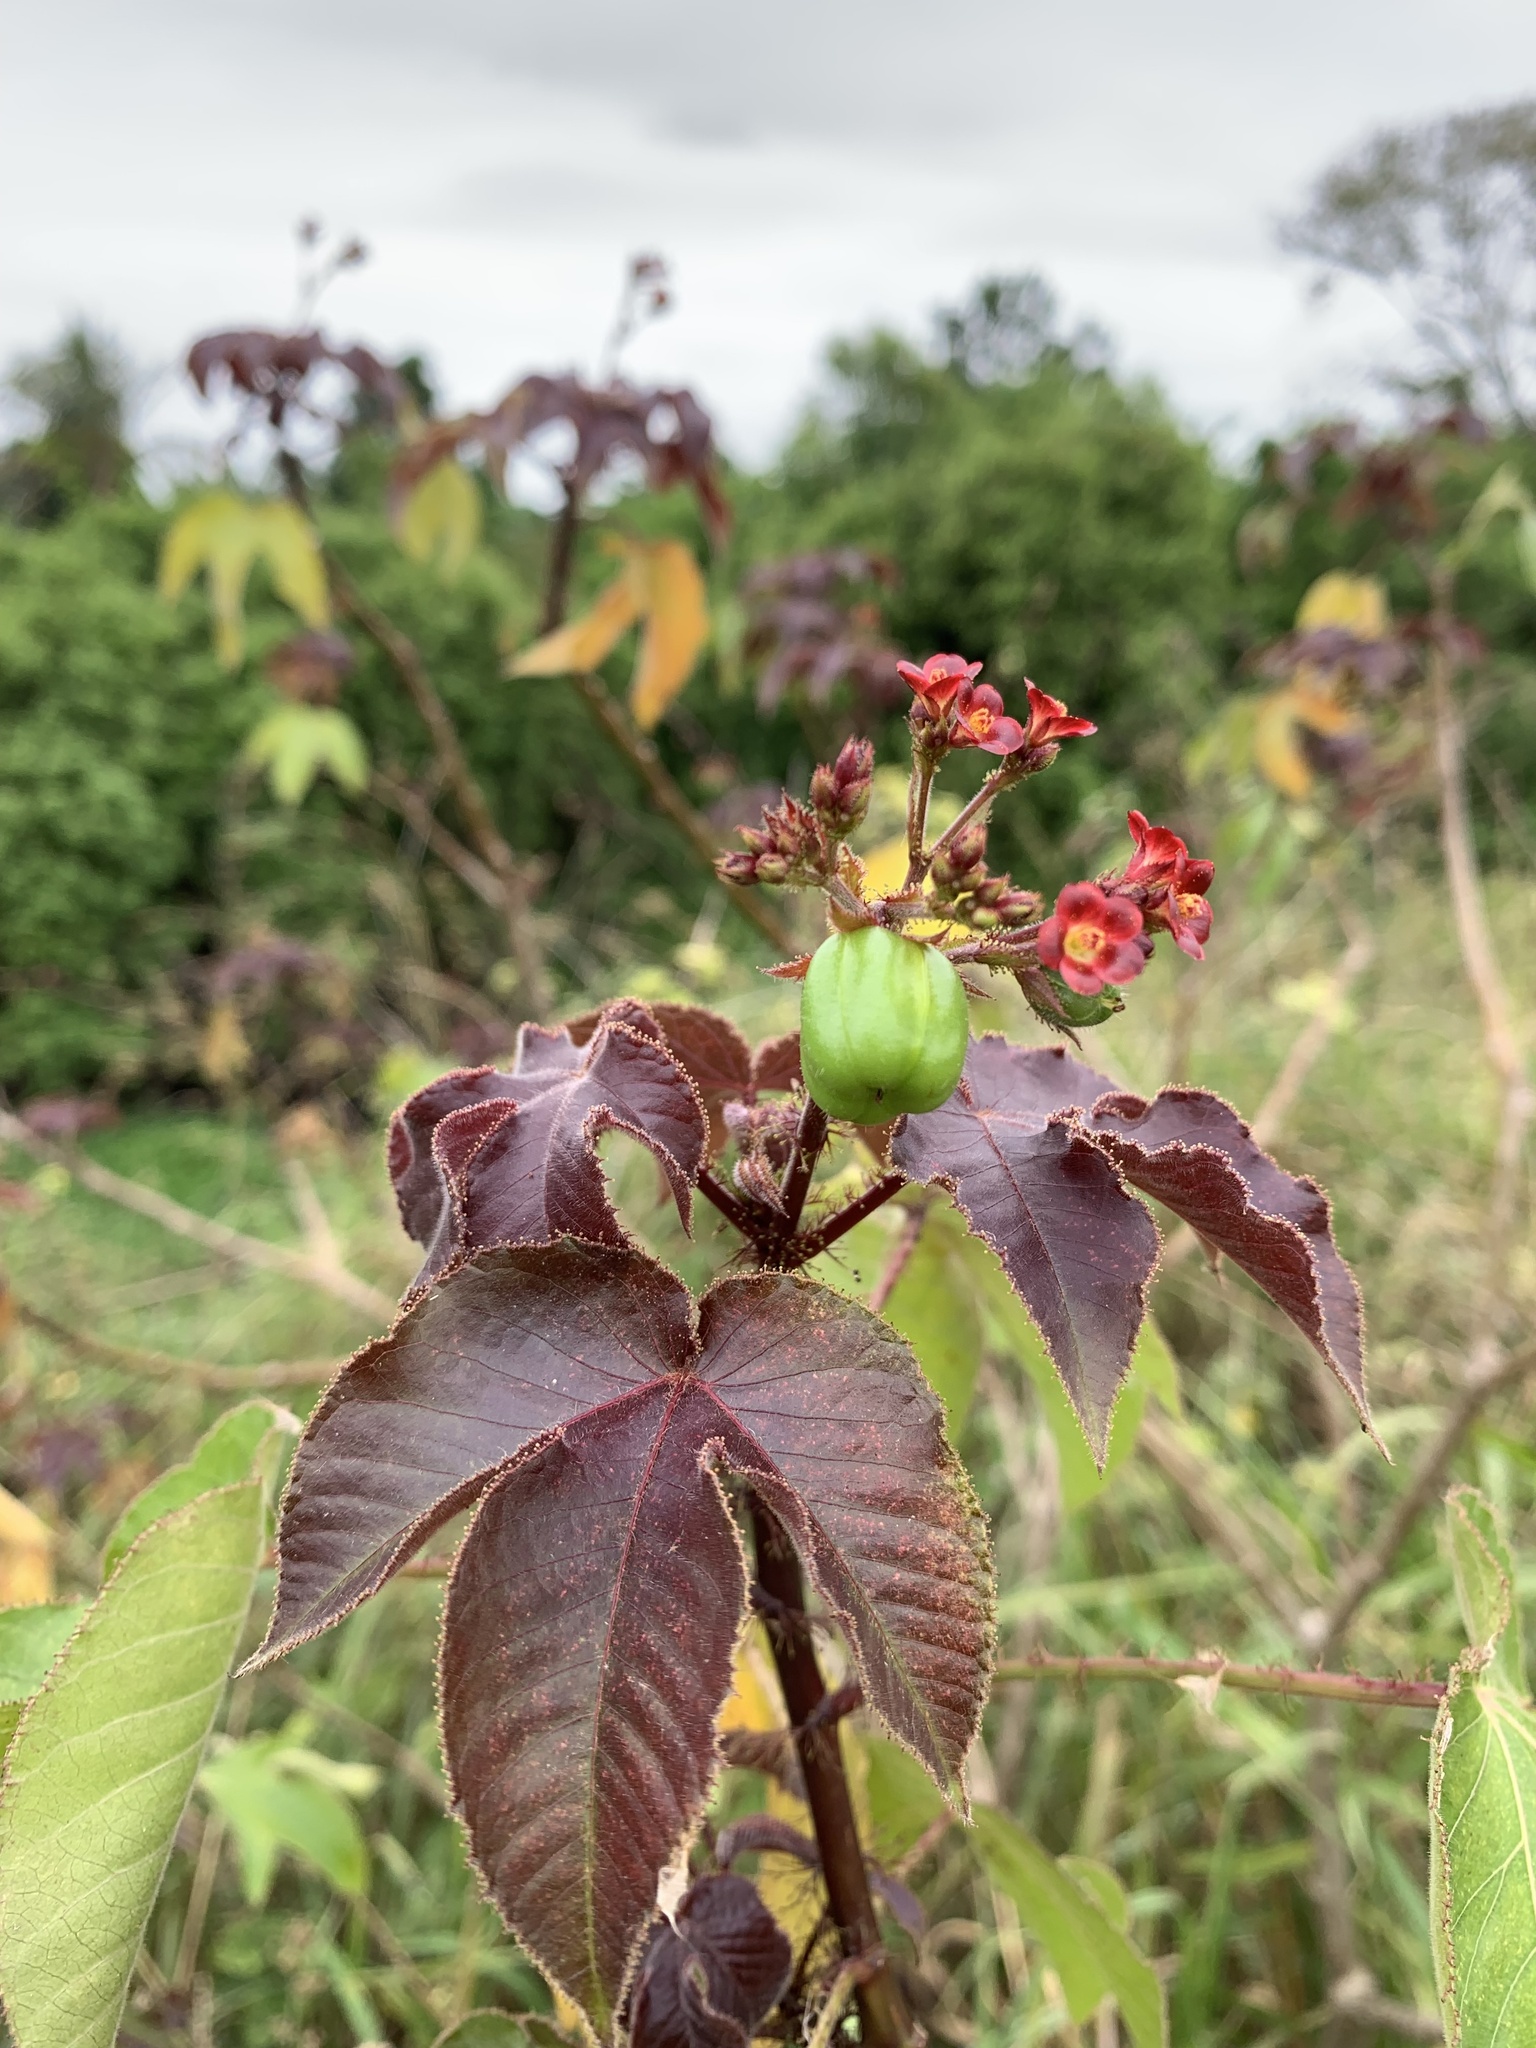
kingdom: Plantae
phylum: Tracheophyta
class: Magnoliopsida
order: Malpighiales
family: Euphorbiaceae
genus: Jatropha
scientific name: Jatropha gossypiifolia
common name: Bellyache bush
